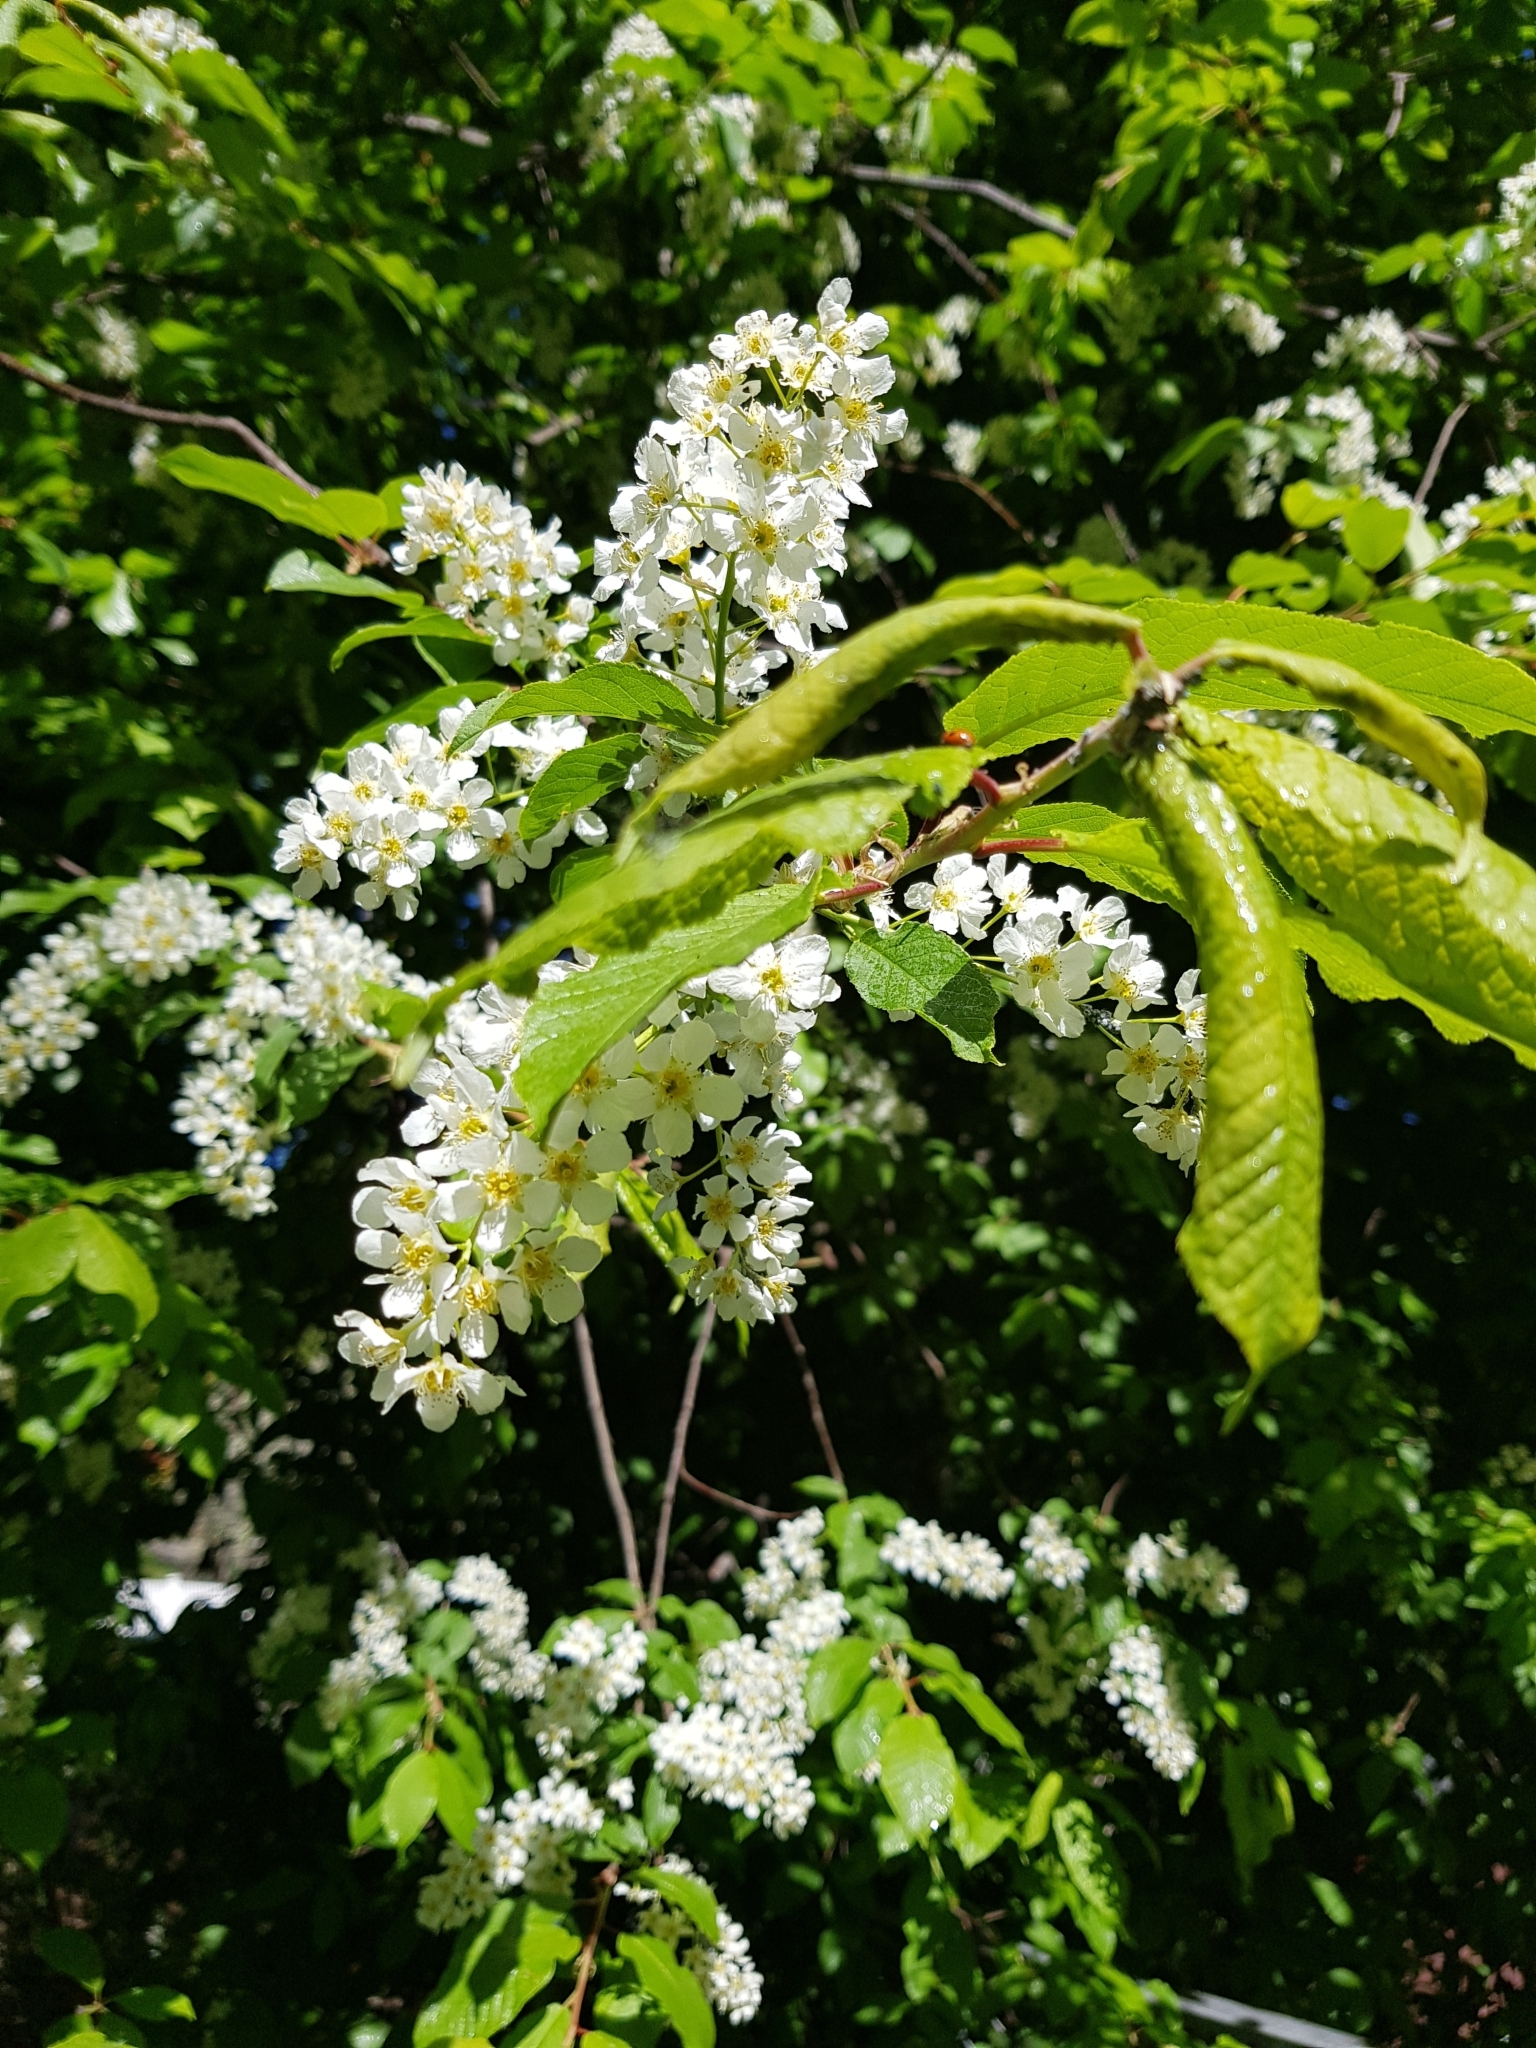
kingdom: Plantae
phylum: Tracheophyta
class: Magnoliopsida
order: Rosales
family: Rosaceae
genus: Prunus
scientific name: Prunus padus
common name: Bird cherry
